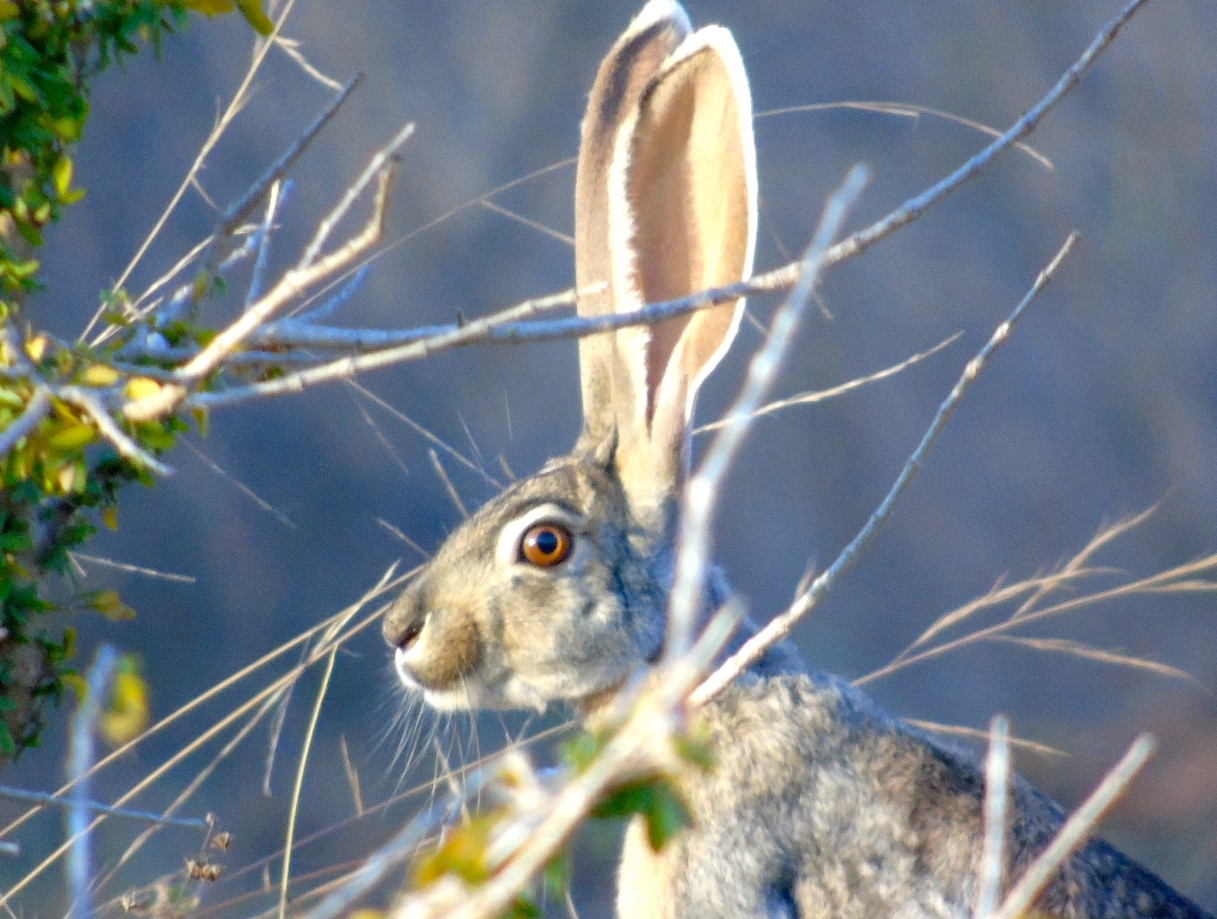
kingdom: Animalia
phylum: Chordata
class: Mammalia
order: Lagomorpha
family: Leporidae
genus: Lepus
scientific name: Lepus alleni
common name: Antelope jackrabbit
